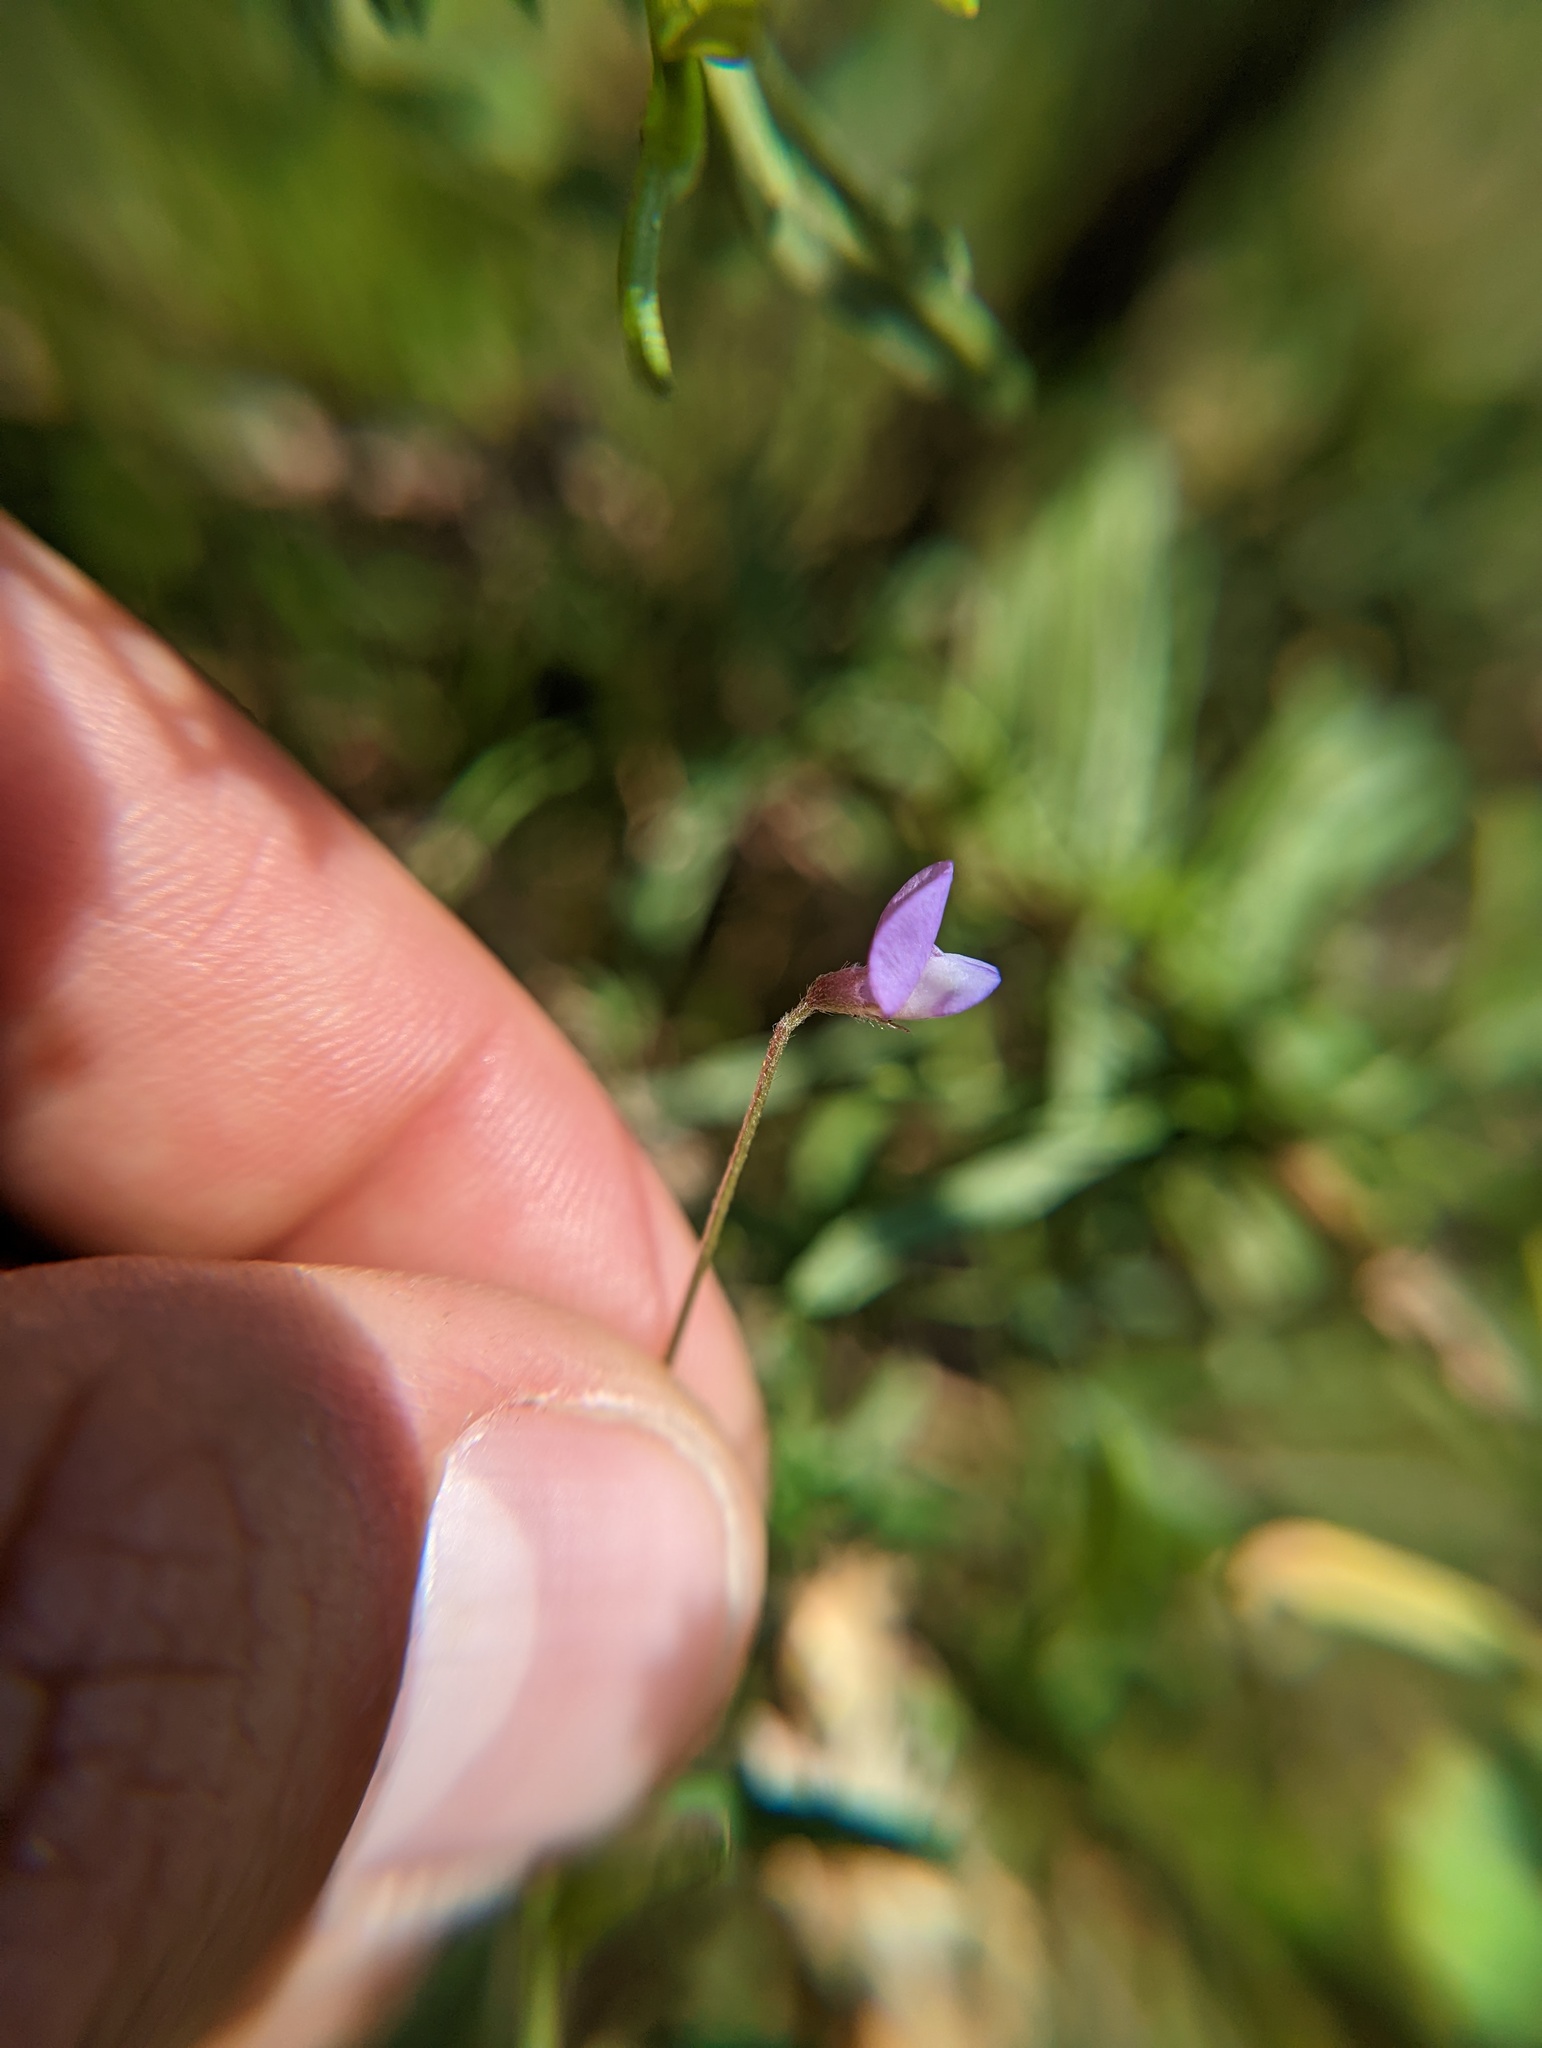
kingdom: Plantae
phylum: Tracheophyta
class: Magnoliopsida
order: Fabales
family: Fabaceae
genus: Vicia
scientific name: Vicia ludoviciana
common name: Louisiana vetch
